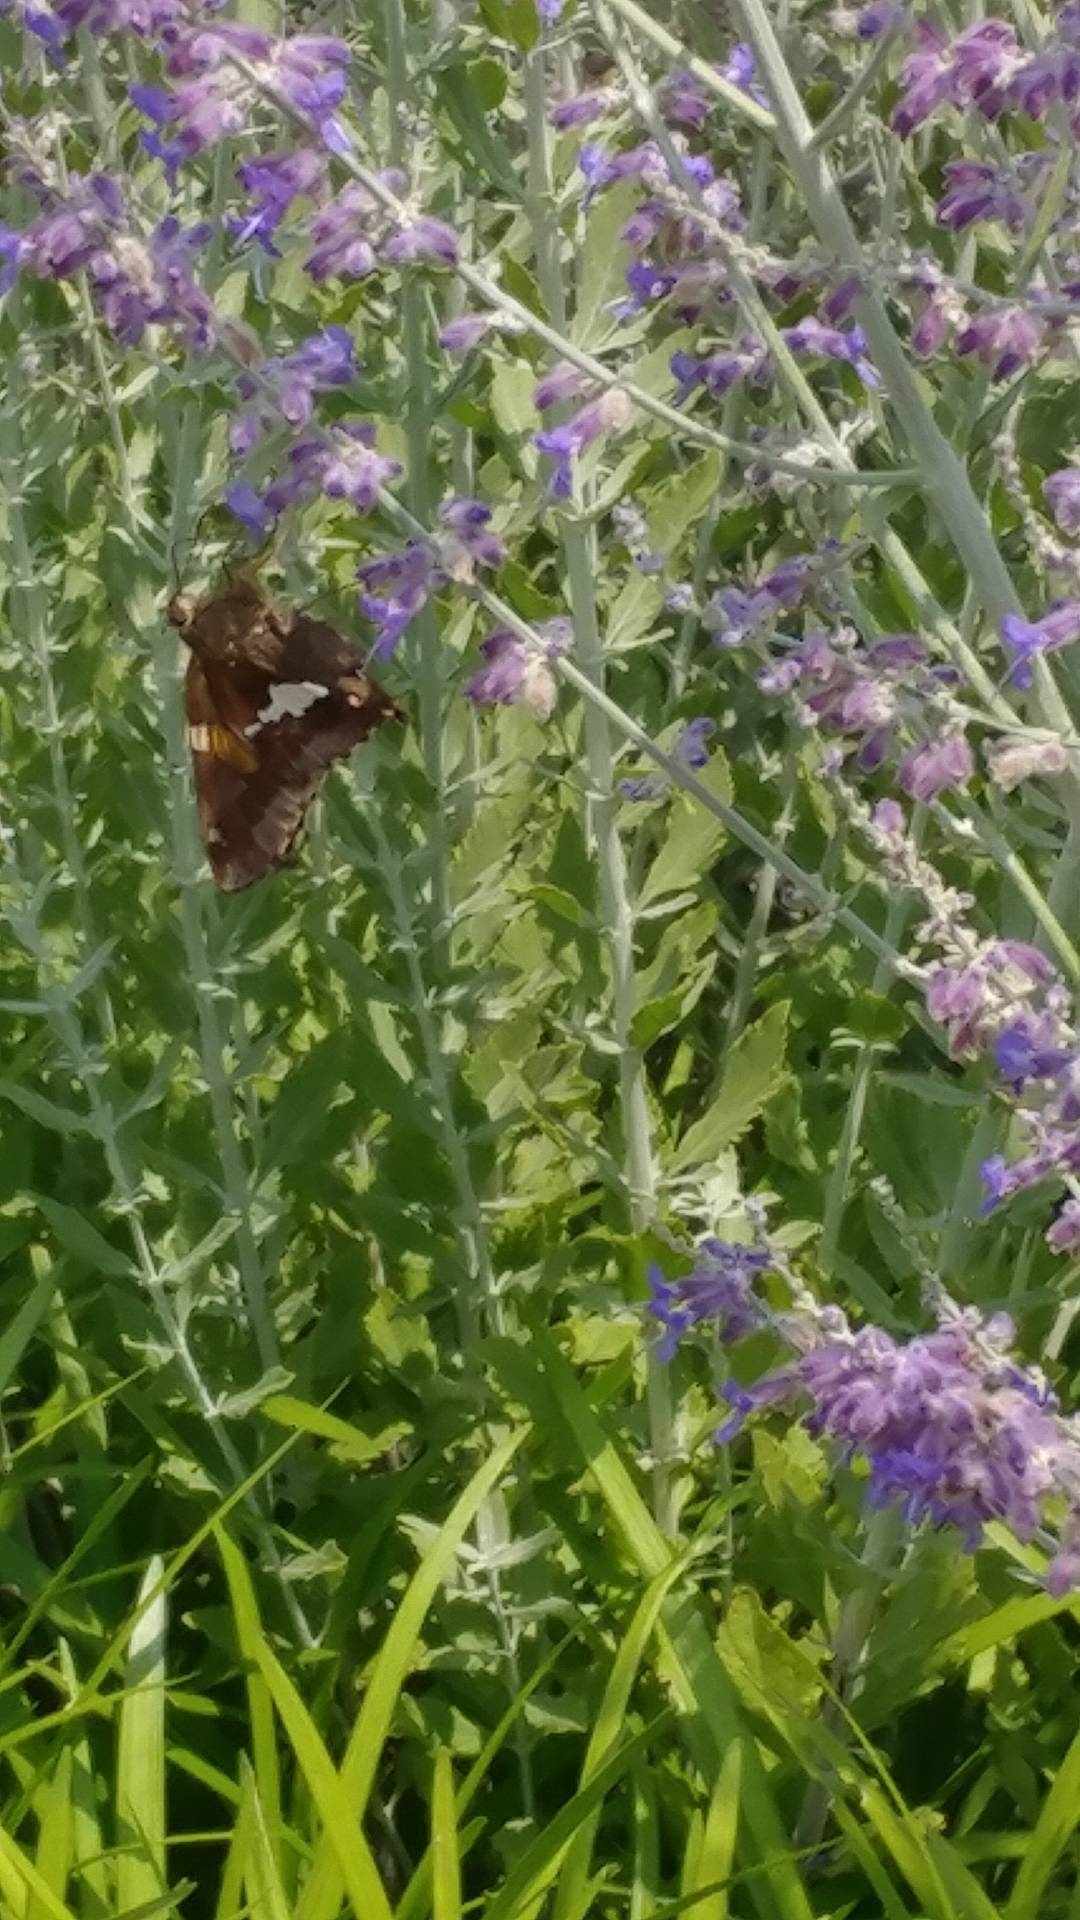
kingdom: Animalia
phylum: Arthropoda
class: Insecta
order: Lepidoptera
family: Hesperiidae
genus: Epargyreus
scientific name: Epargyreus clarus
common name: Silver-spotted skipper
